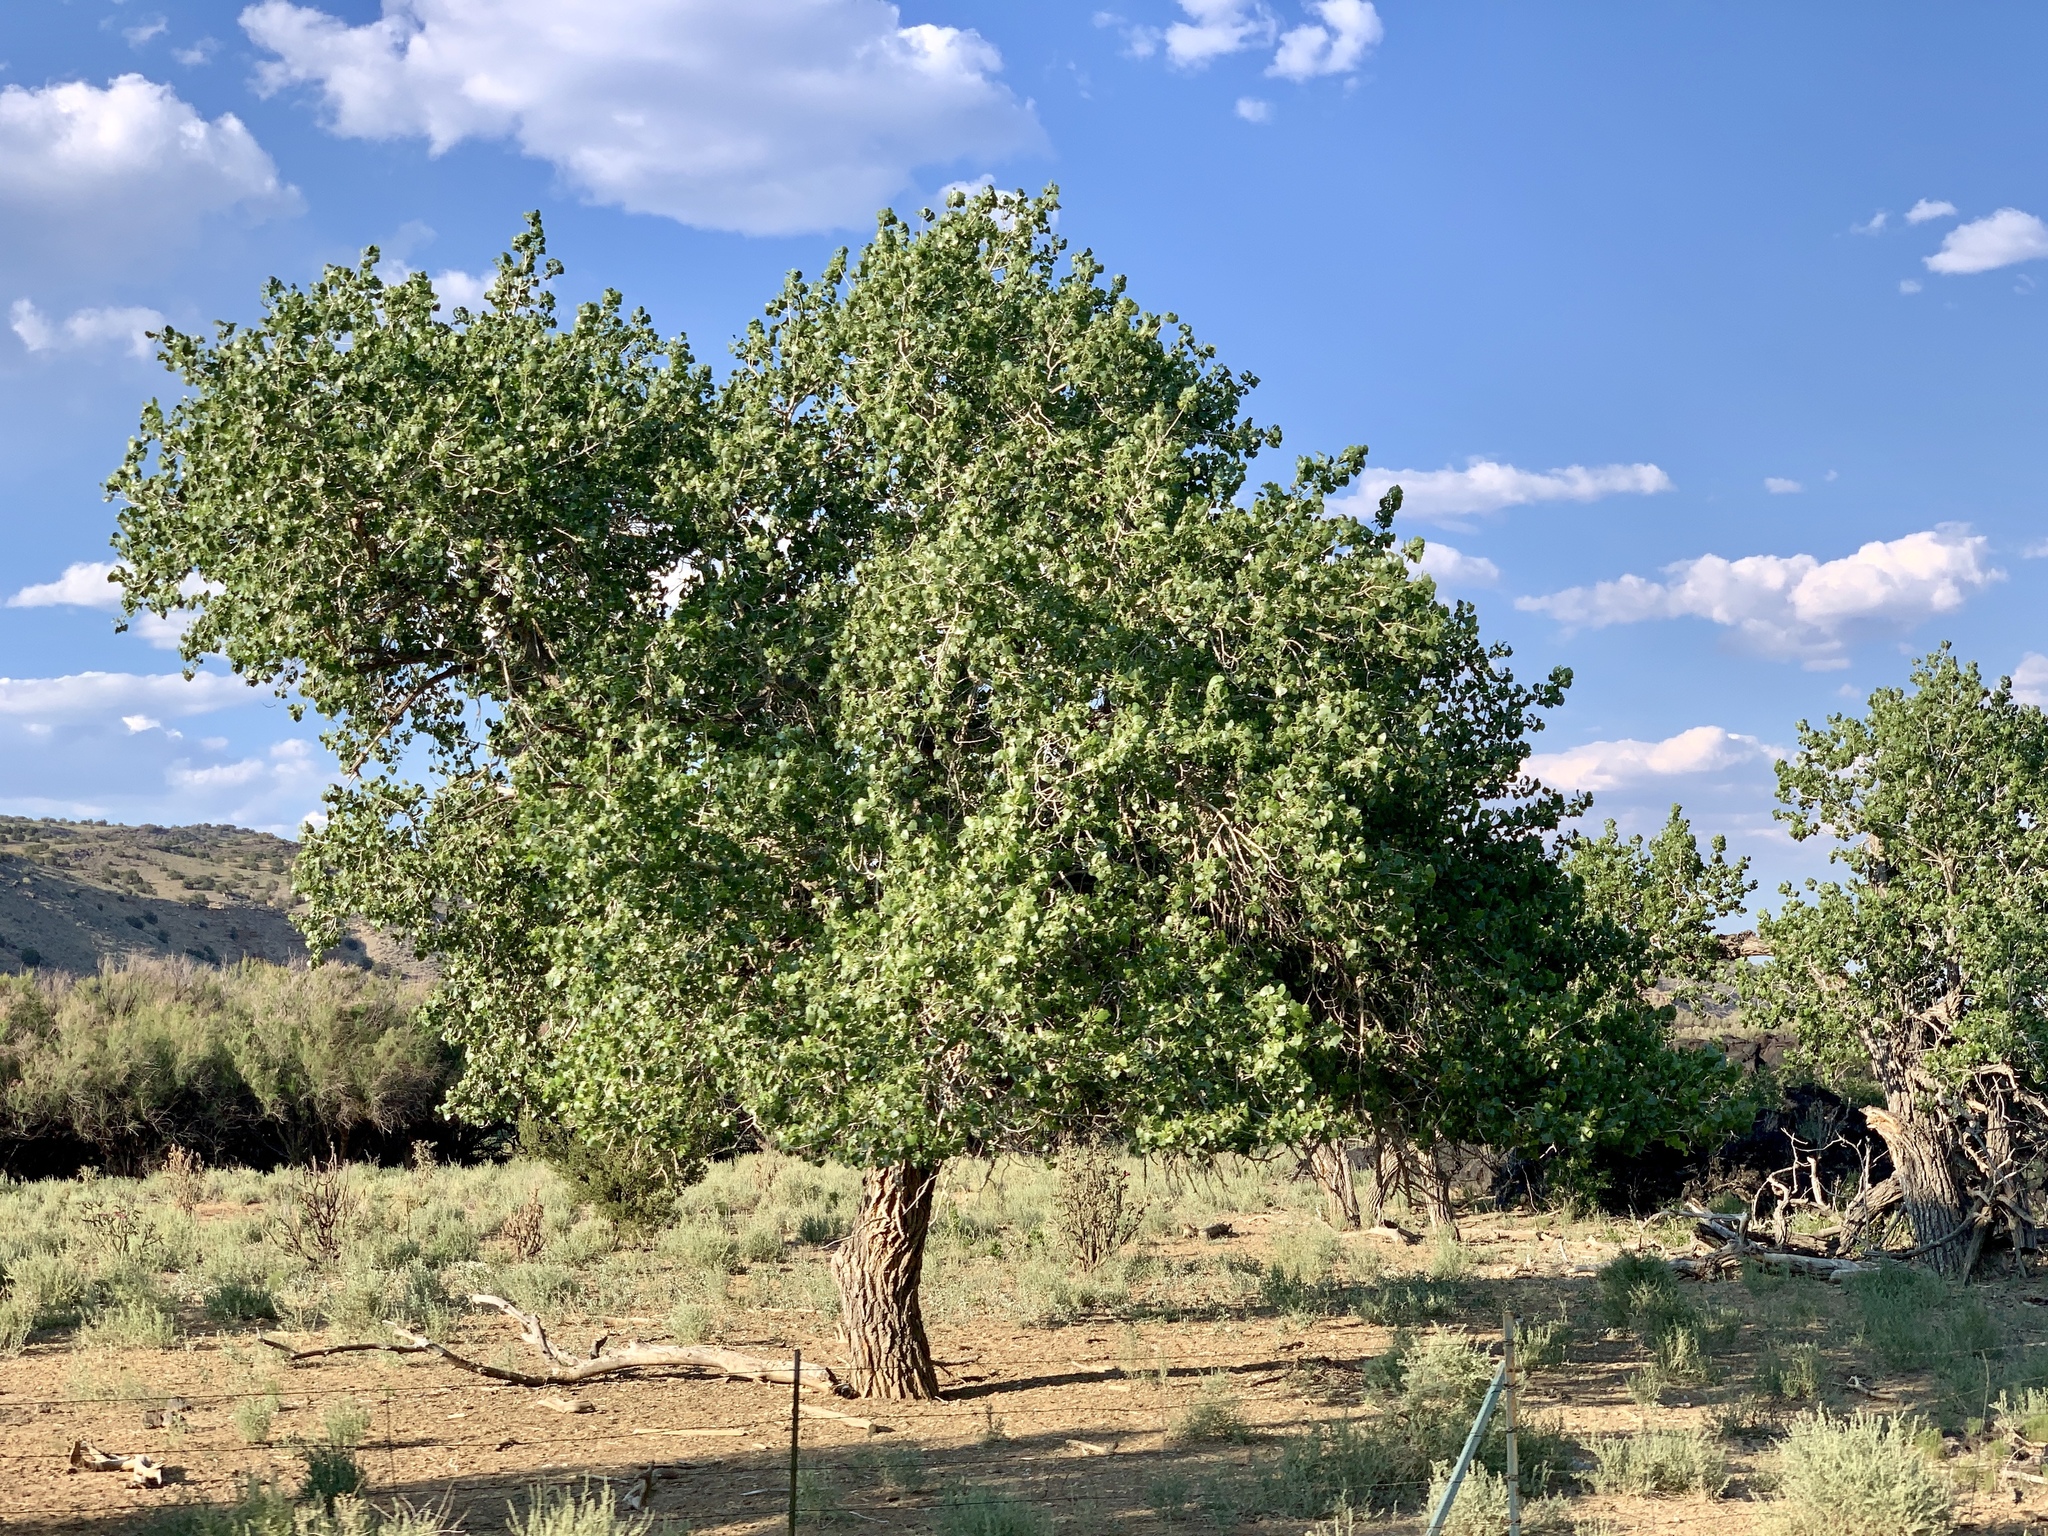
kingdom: Plantae
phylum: Tracheophyta
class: Magnoliopsida
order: Malpighiales
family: Salicaceae
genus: Populus
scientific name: Populus fremontii
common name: Fremont's cottonwood
